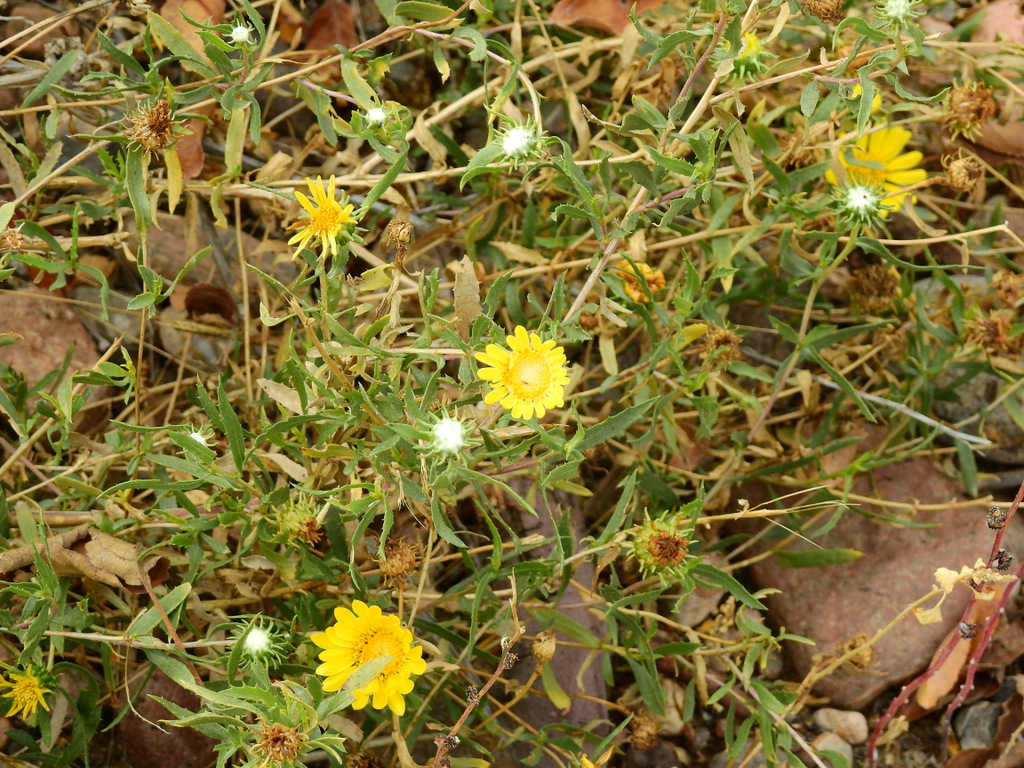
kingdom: Plantae
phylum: Tracheophyta
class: Magnoliopsida
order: Asterales
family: Asteraceae
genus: Grindelia
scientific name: Grindelia pulchella
